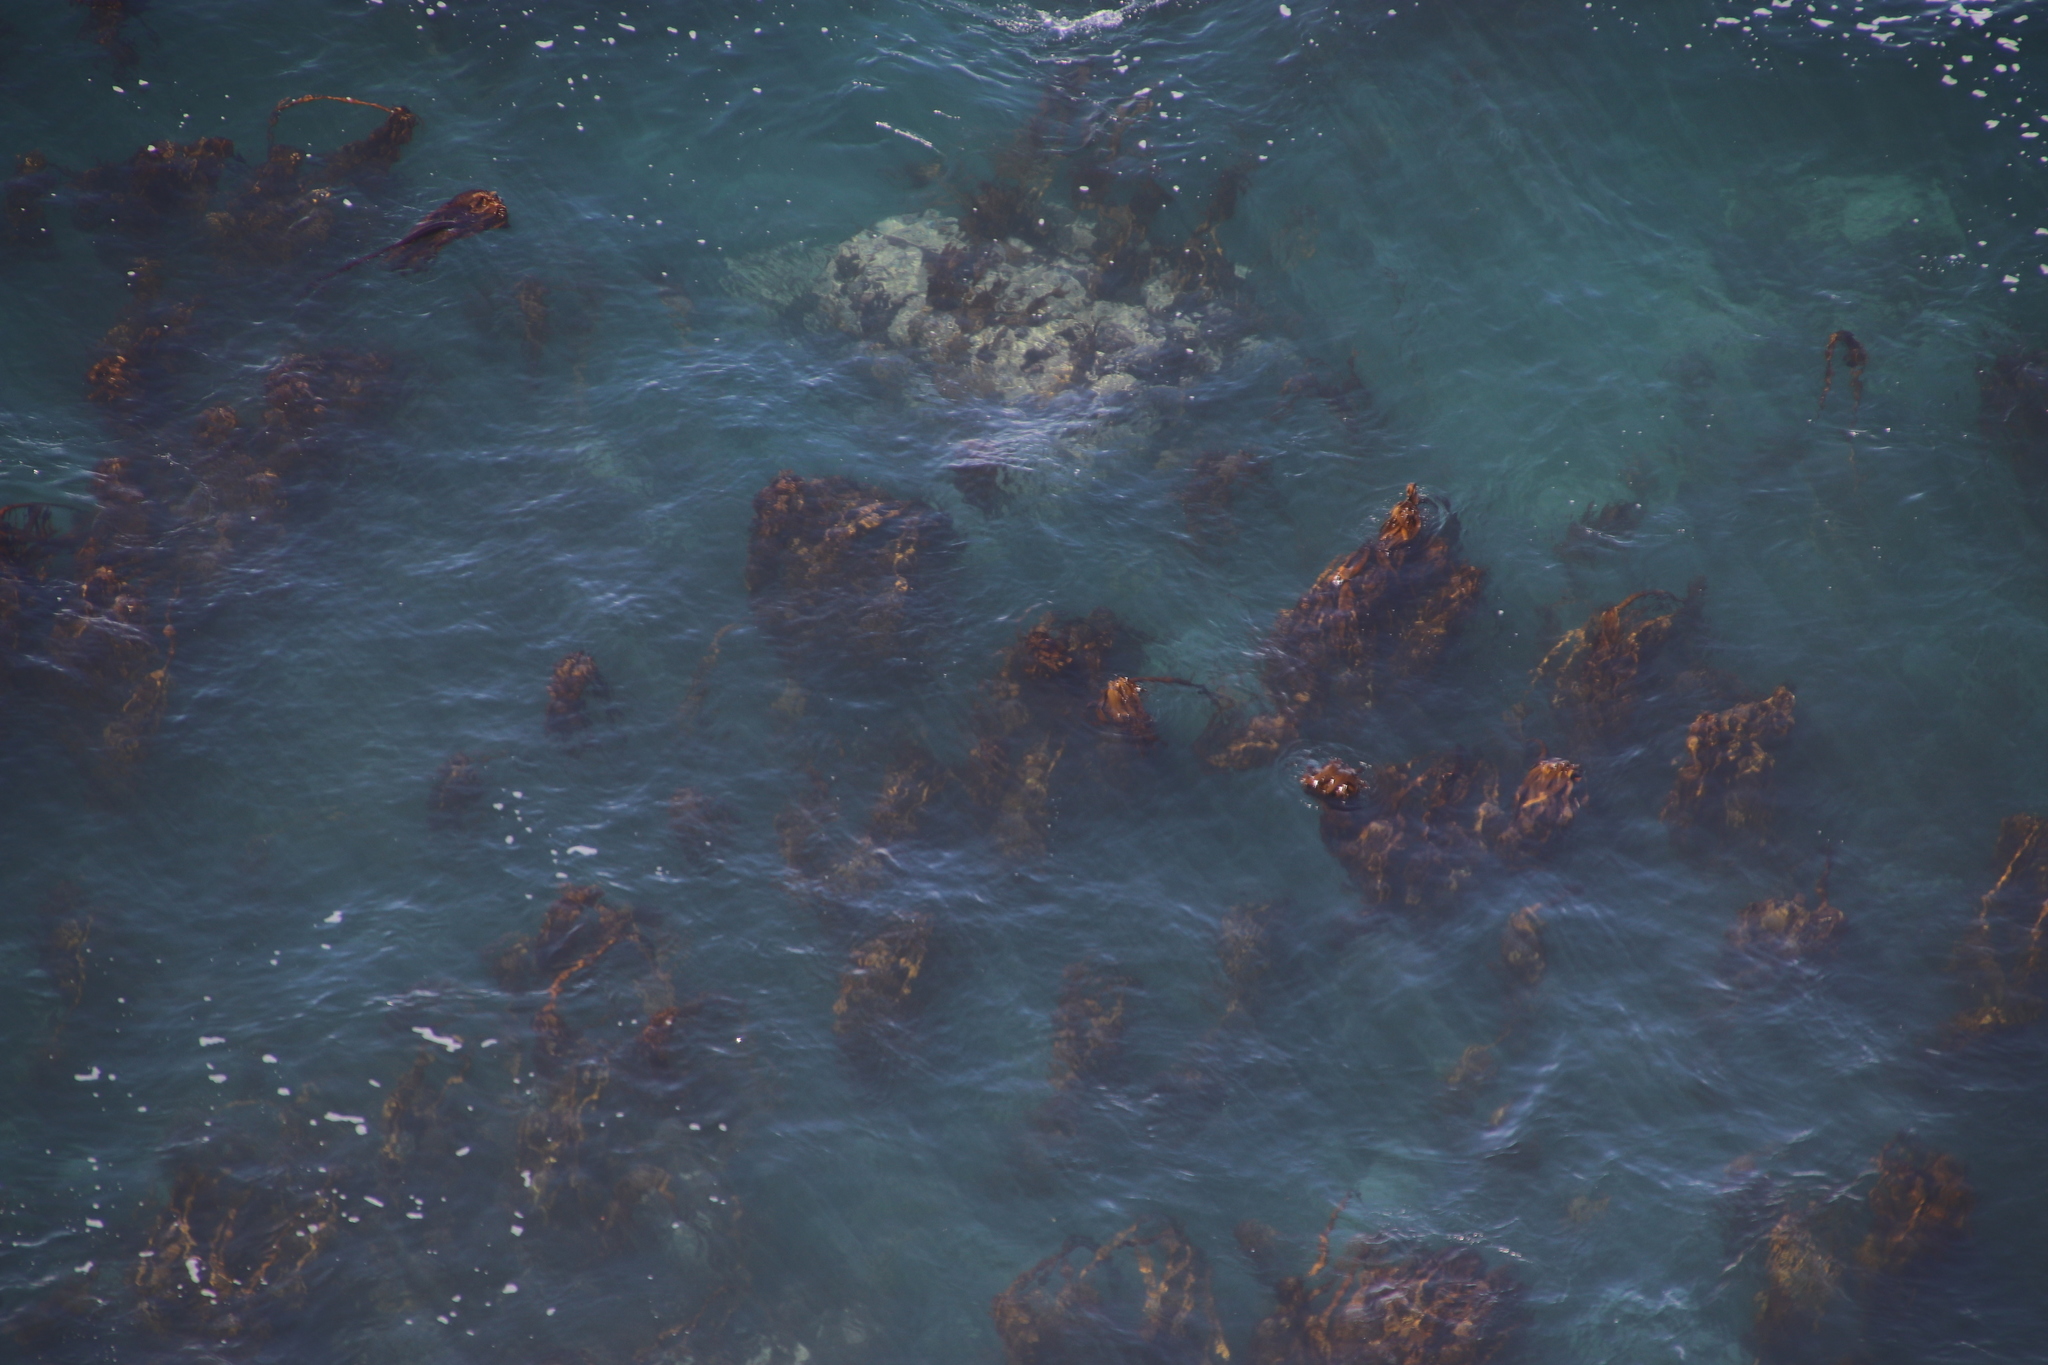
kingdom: Chromista
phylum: Ochrophyta
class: Phaeophyceae
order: Laminariales
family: Lessoniaceae
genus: Ecklonia
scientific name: Ecklonia
